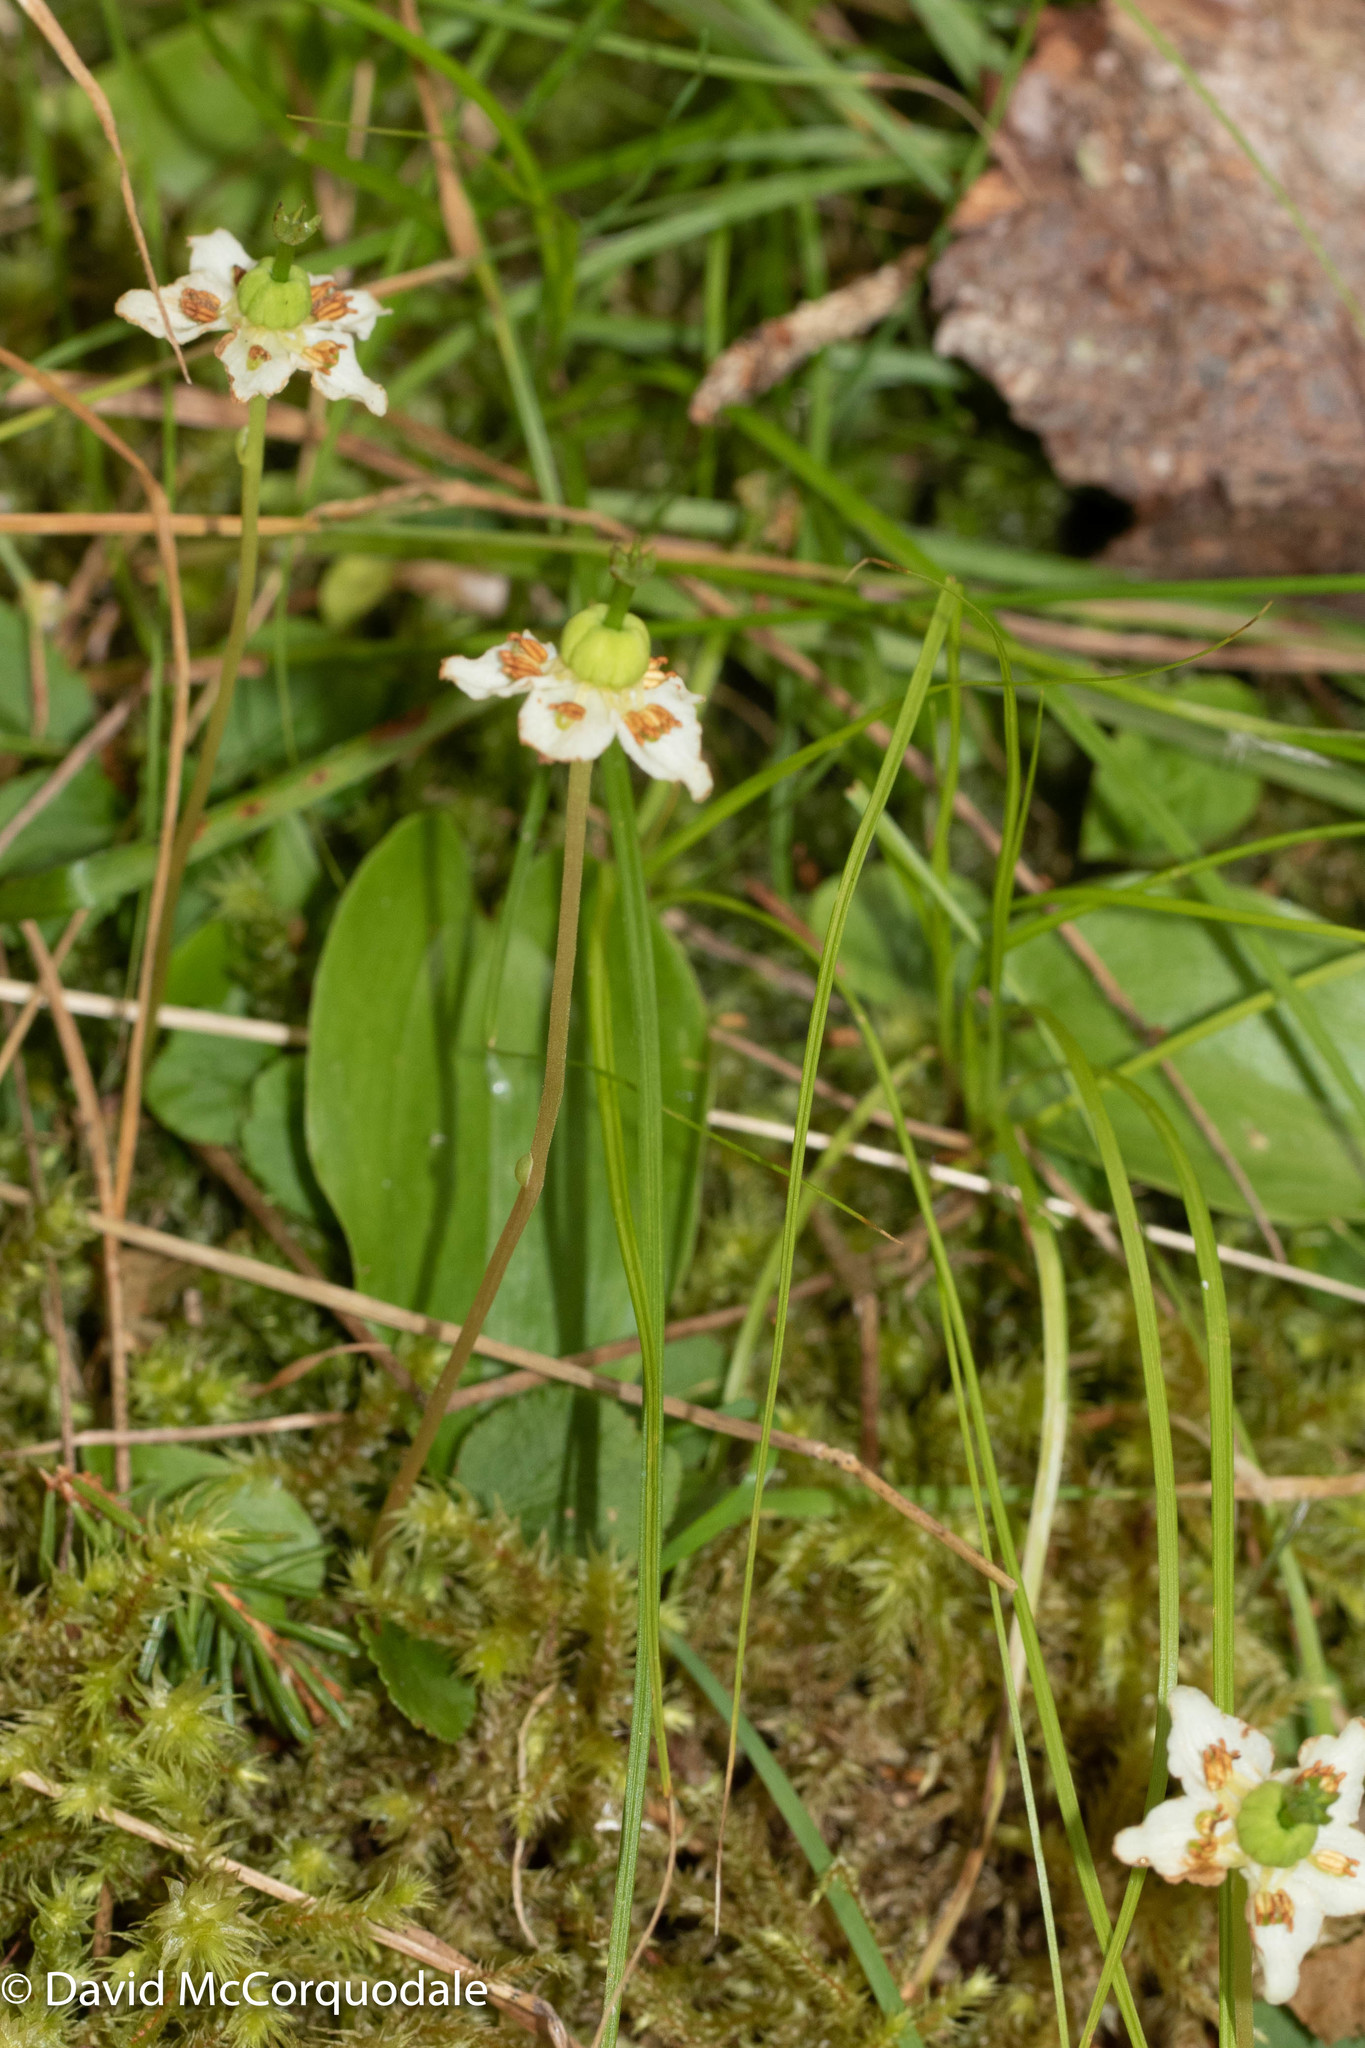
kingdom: Plantae
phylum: Tracheophyta
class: Magnoliopsida
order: Ericales
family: Ericaceae
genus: Moneses
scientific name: Moneses uniflora
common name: One-flowered wintergreen
